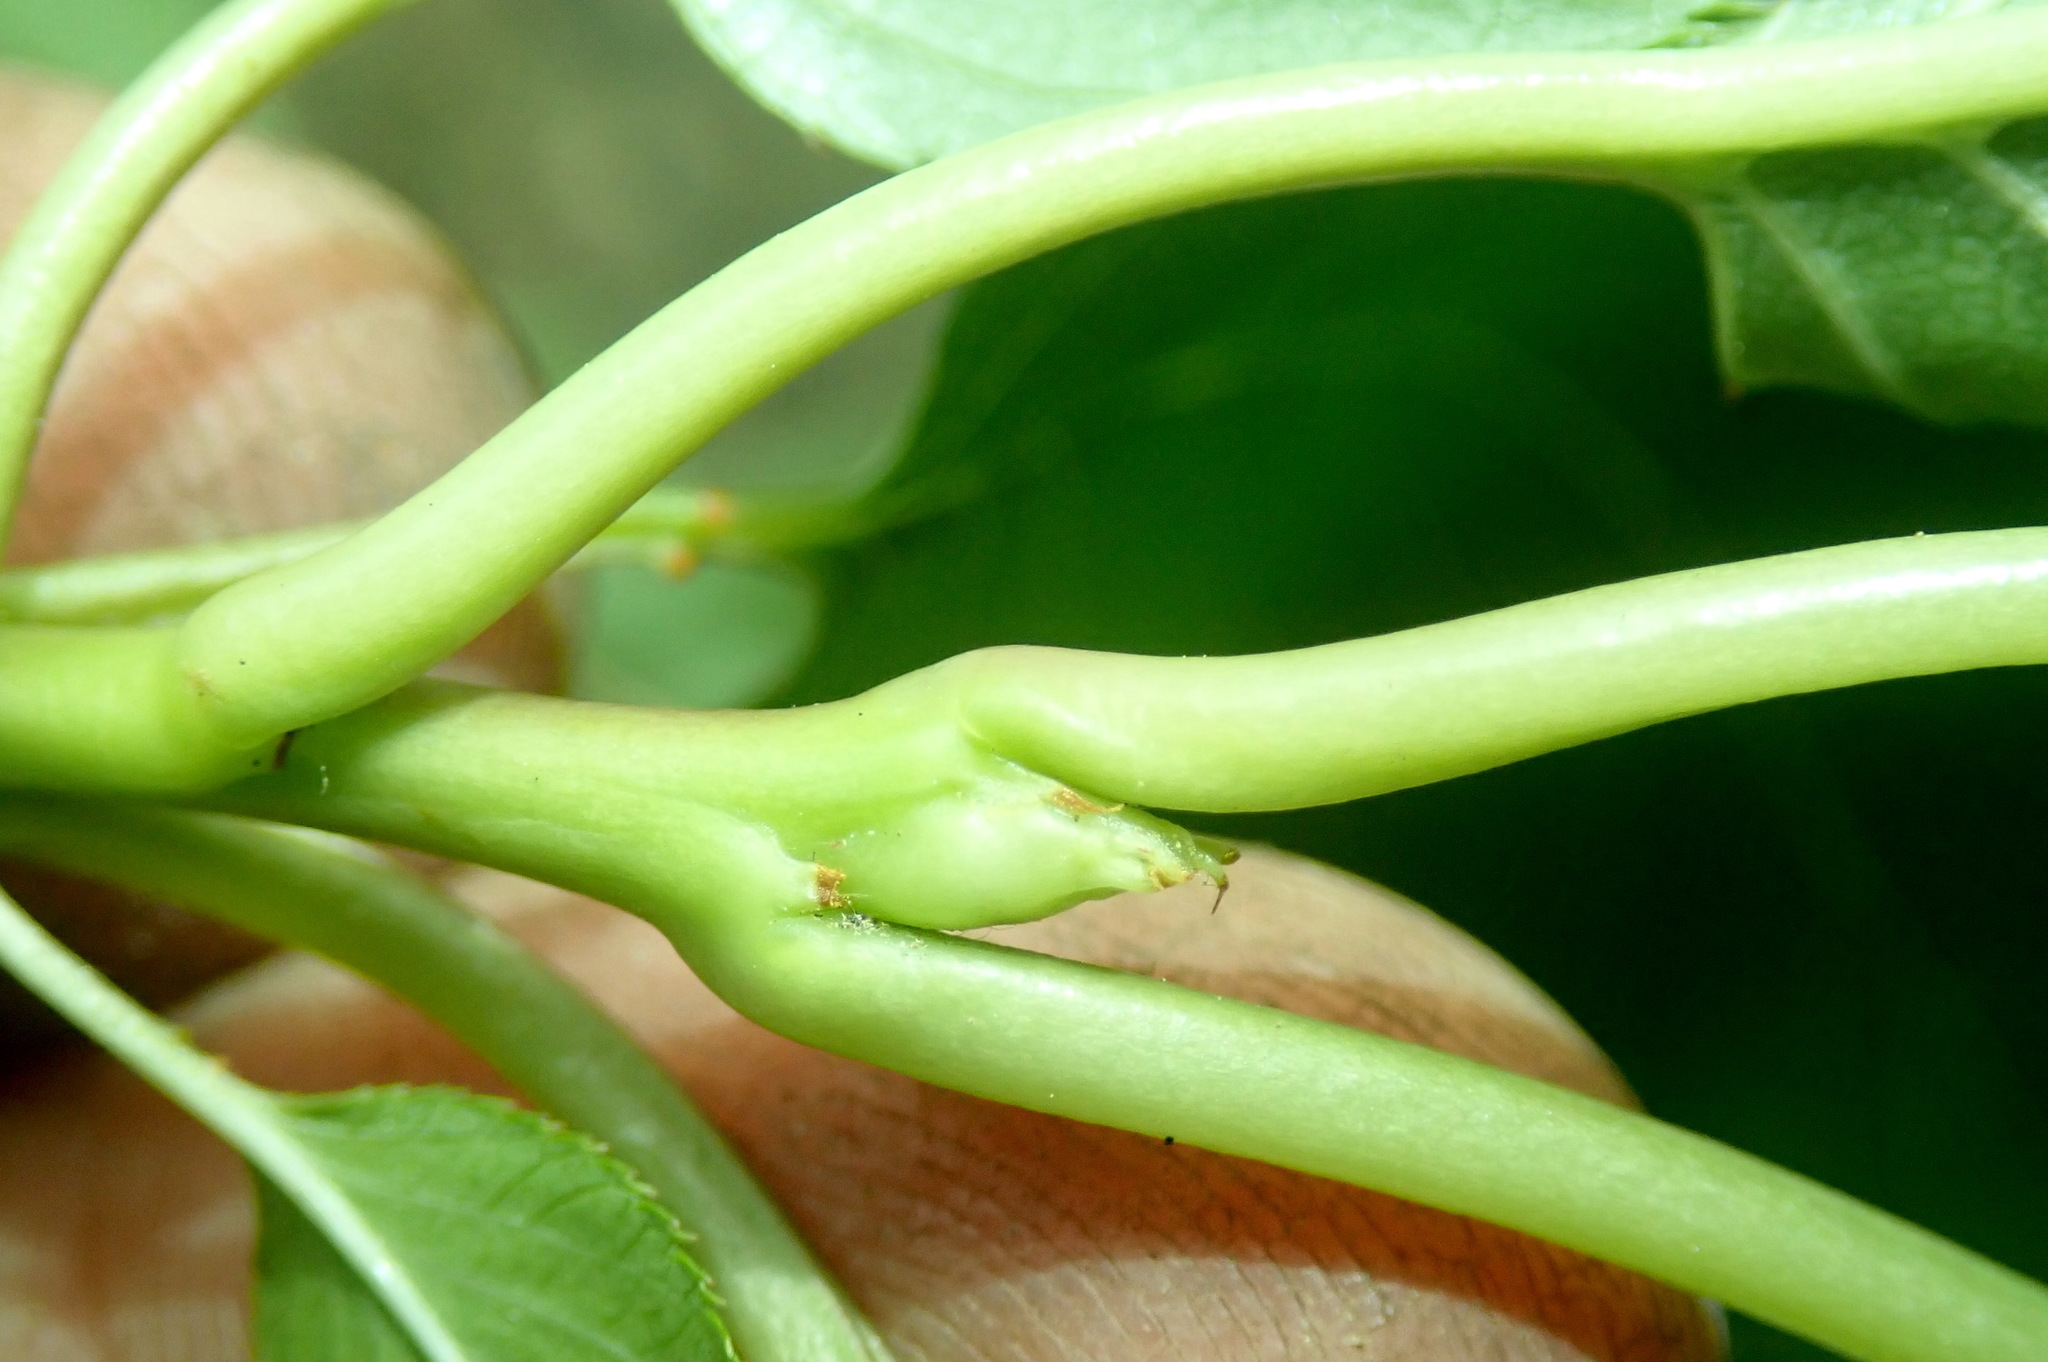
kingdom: Plantae
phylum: Tracheophyta
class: Magnoliopsida
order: Rosales
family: Rosaceae
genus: Prunus
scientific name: Prunus serrulata
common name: Japanese cherry
